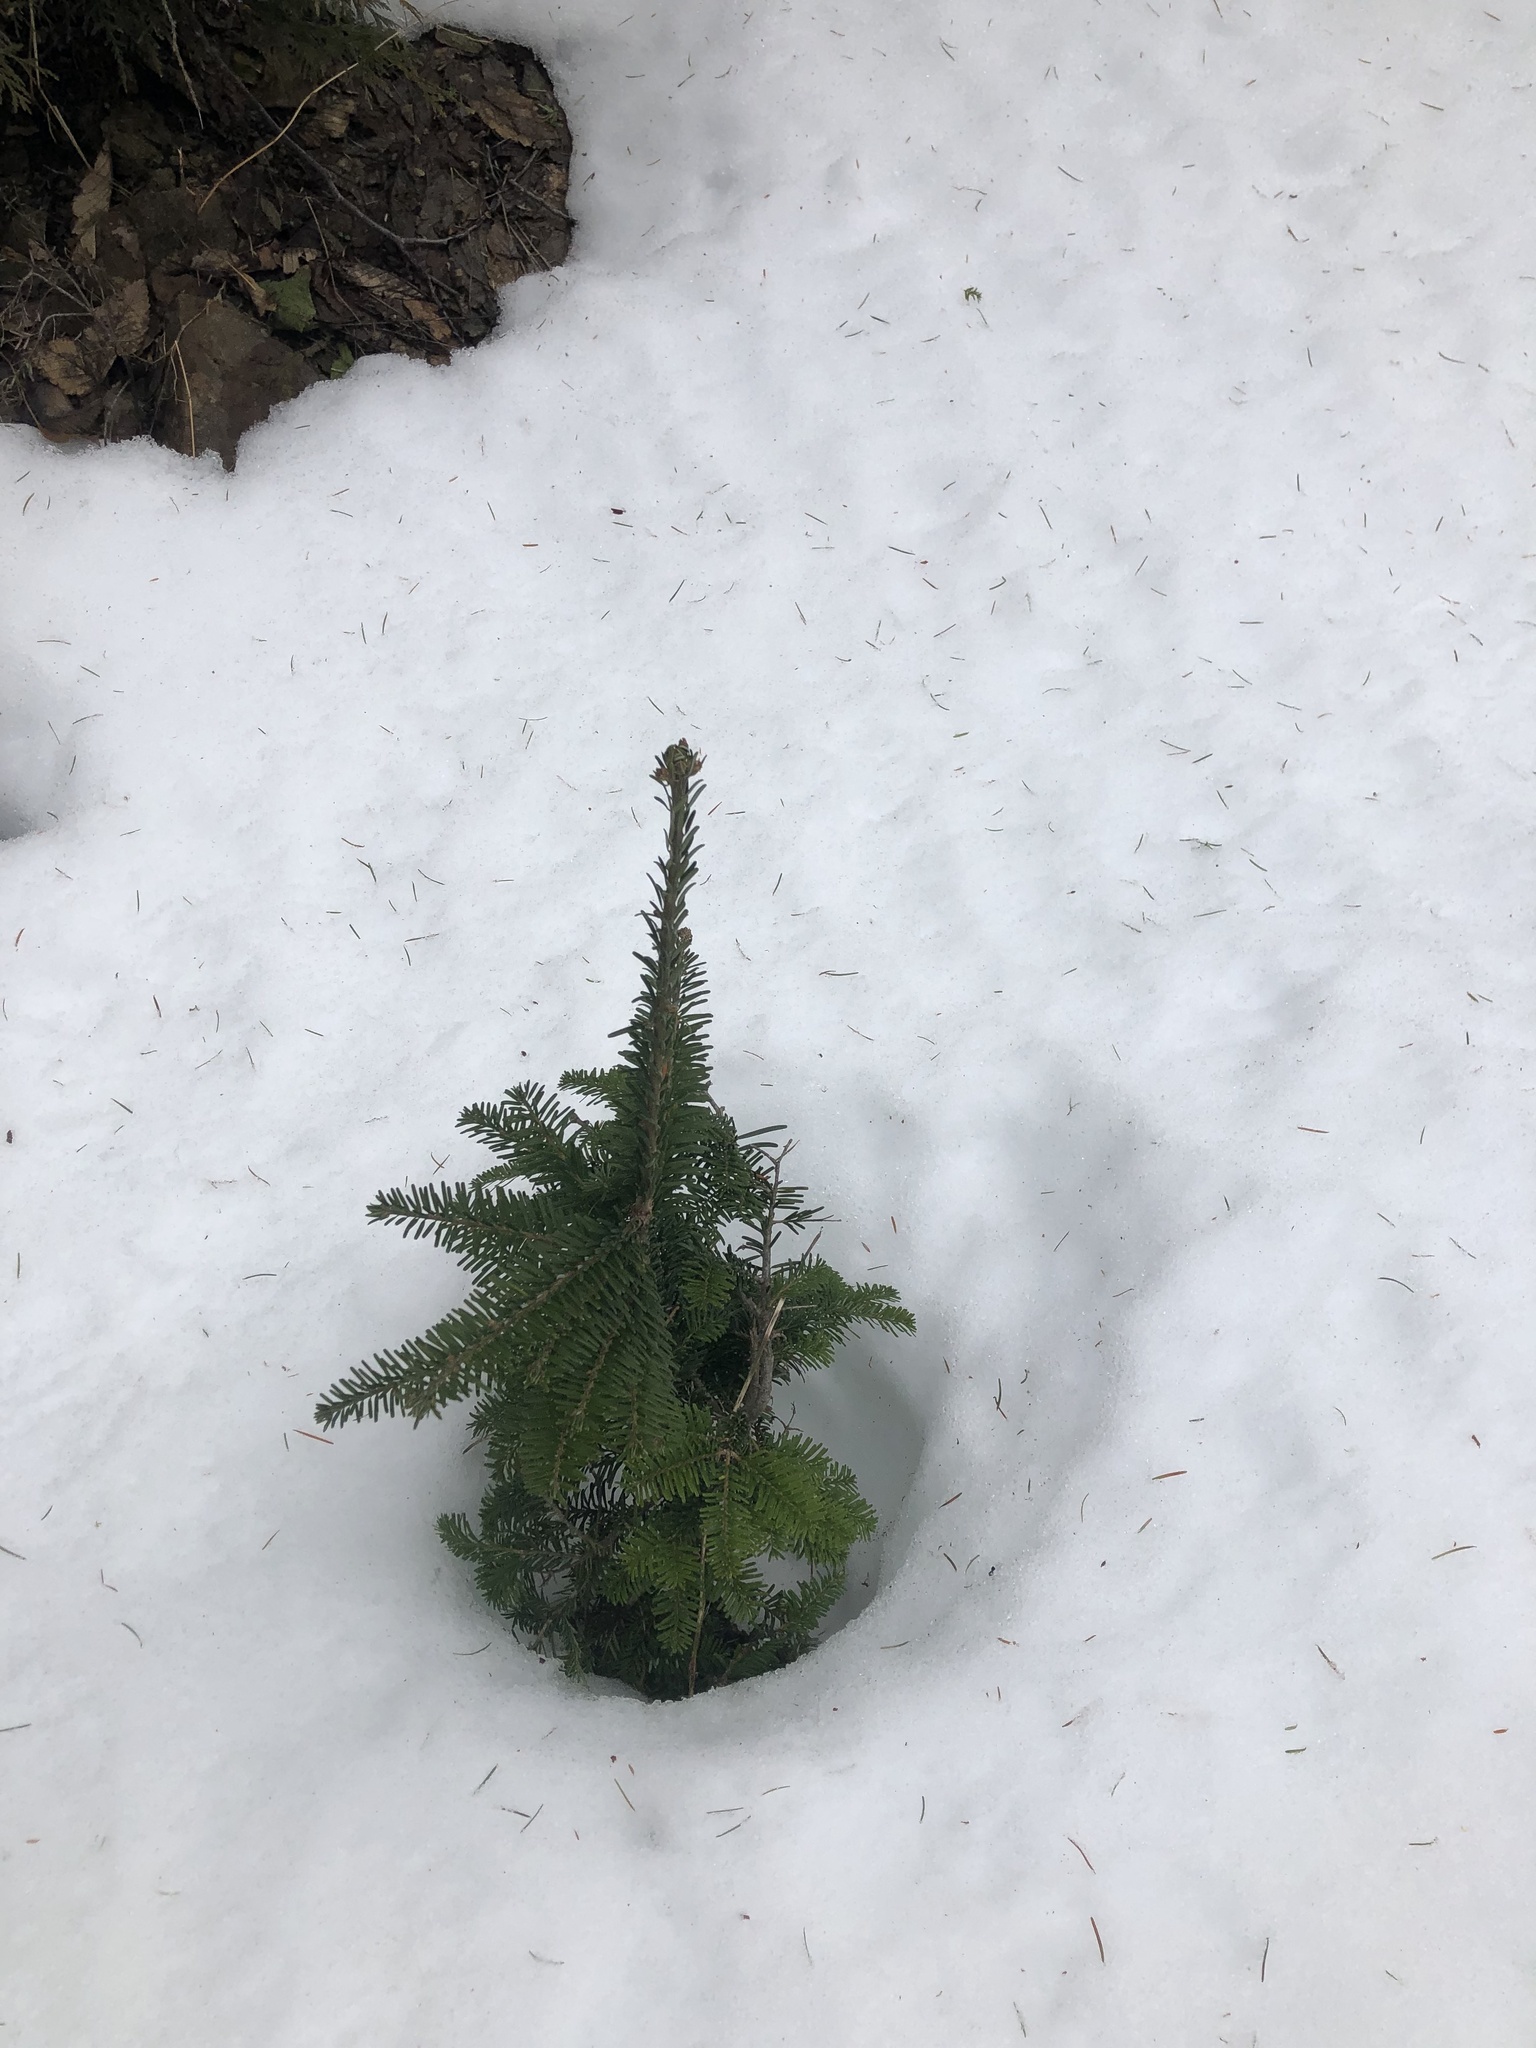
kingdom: Plantae
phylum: Tracheophyta
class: Pinopsida
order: Pinales
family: Pinaceae
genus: Abies
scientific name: Abies amabilis
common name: Pacific silver fir
